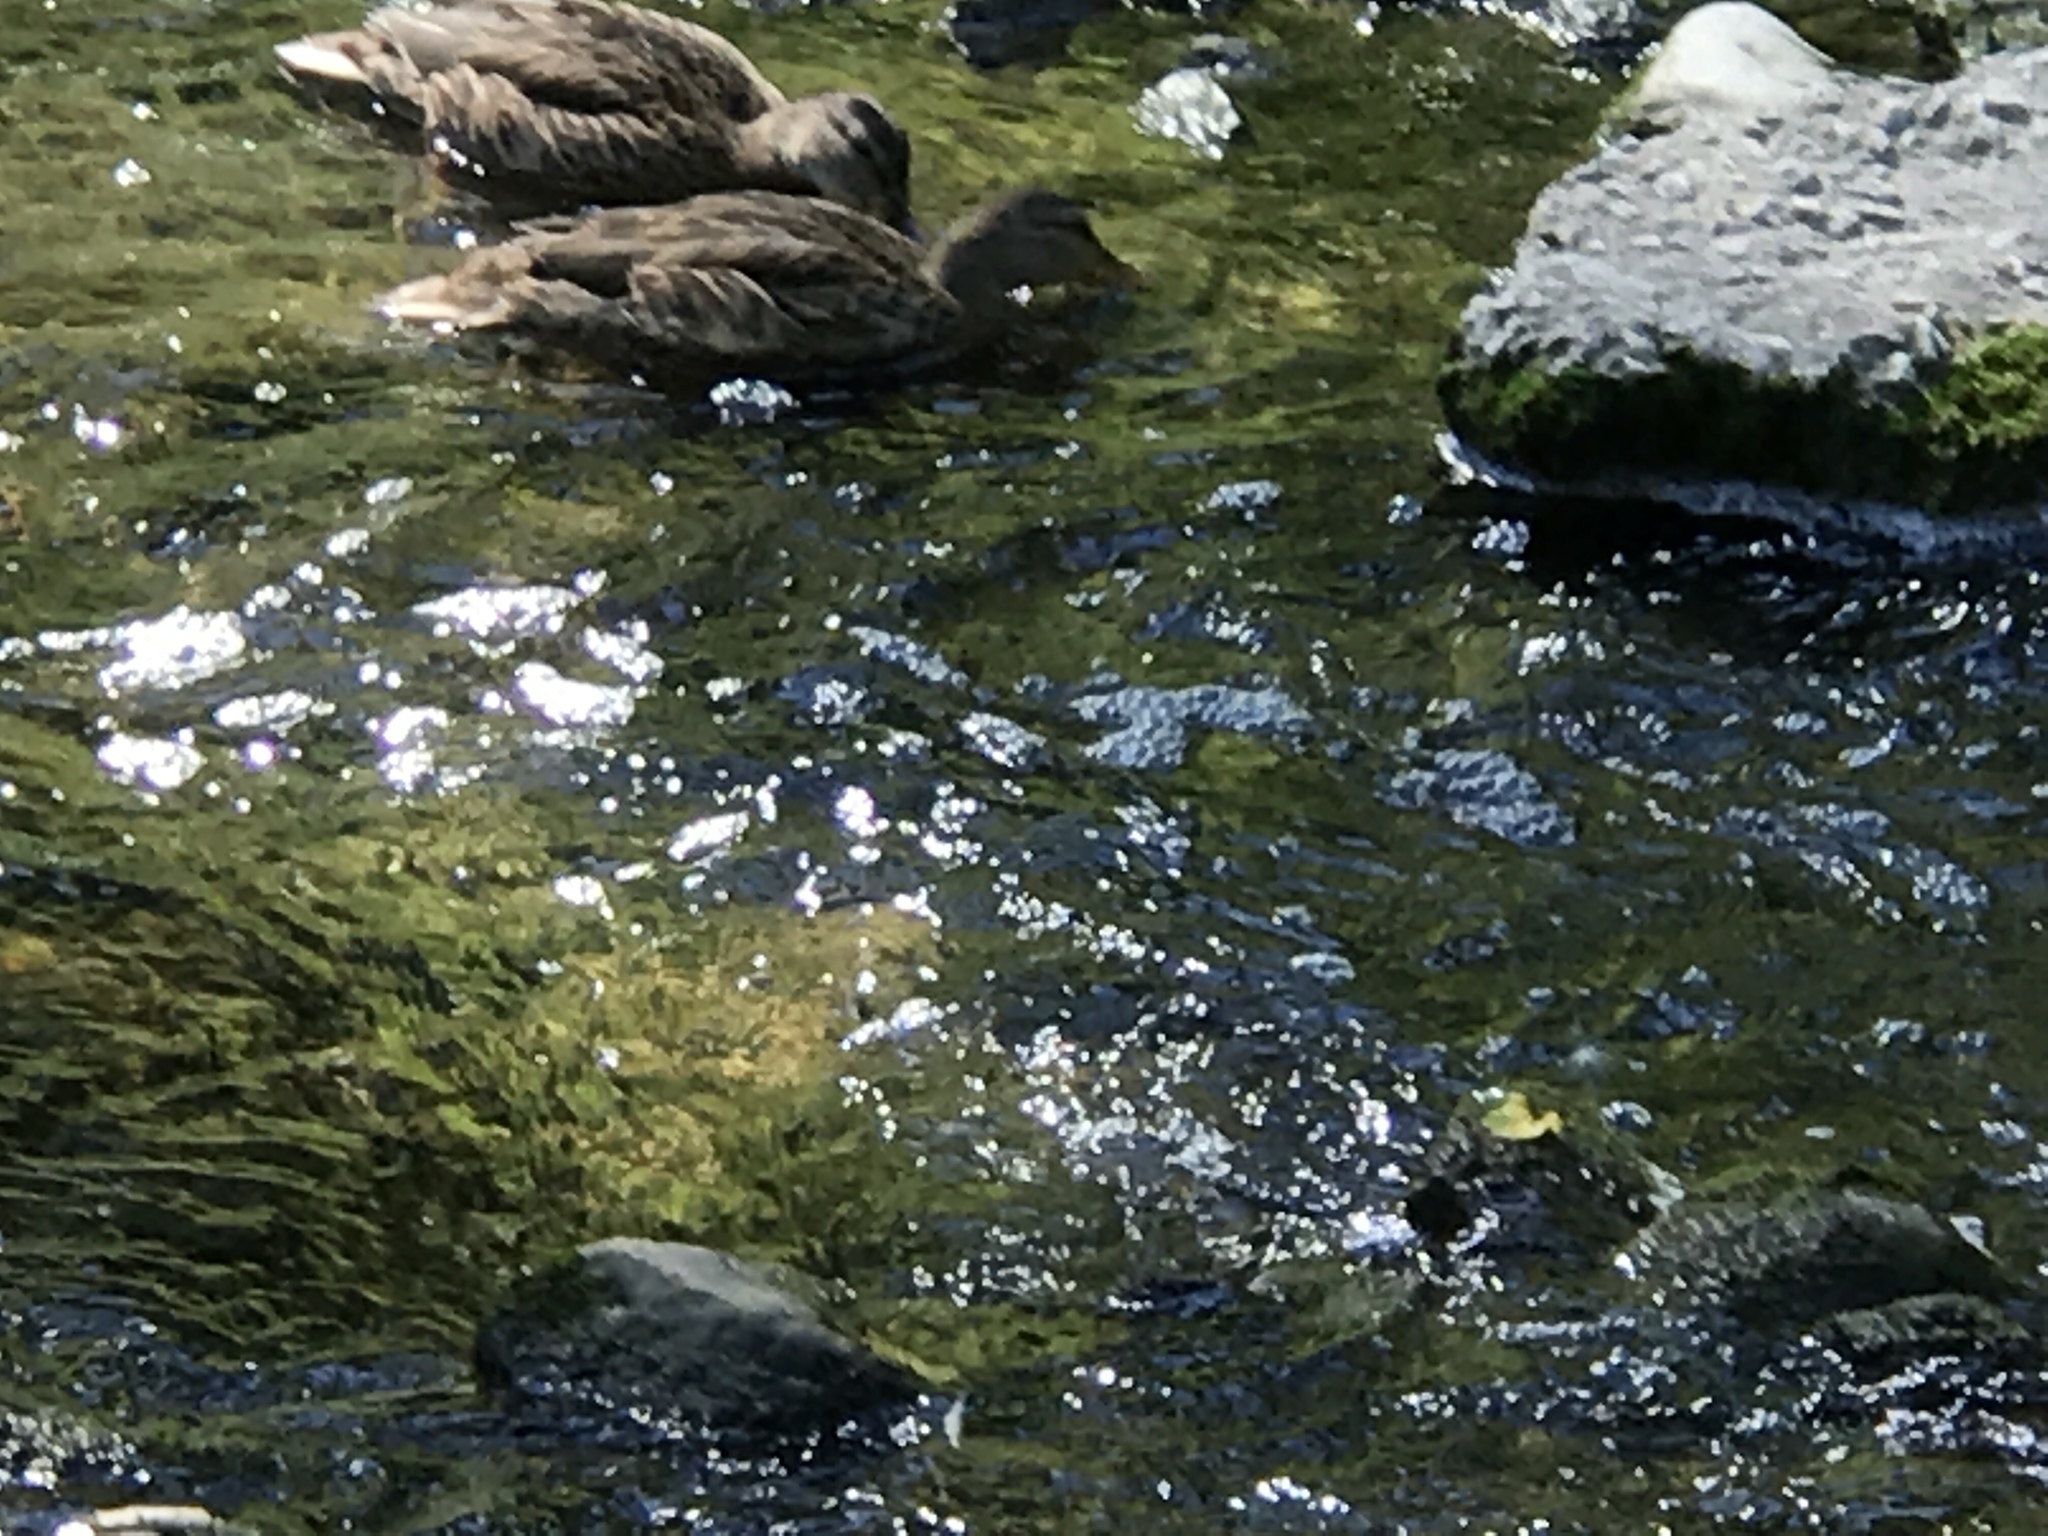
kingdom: Animalia
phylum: Chordata
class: Aves
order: Anseriformes
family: Anatidae
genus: Anas
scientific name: Anas platyrhynchos
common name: Mallard
